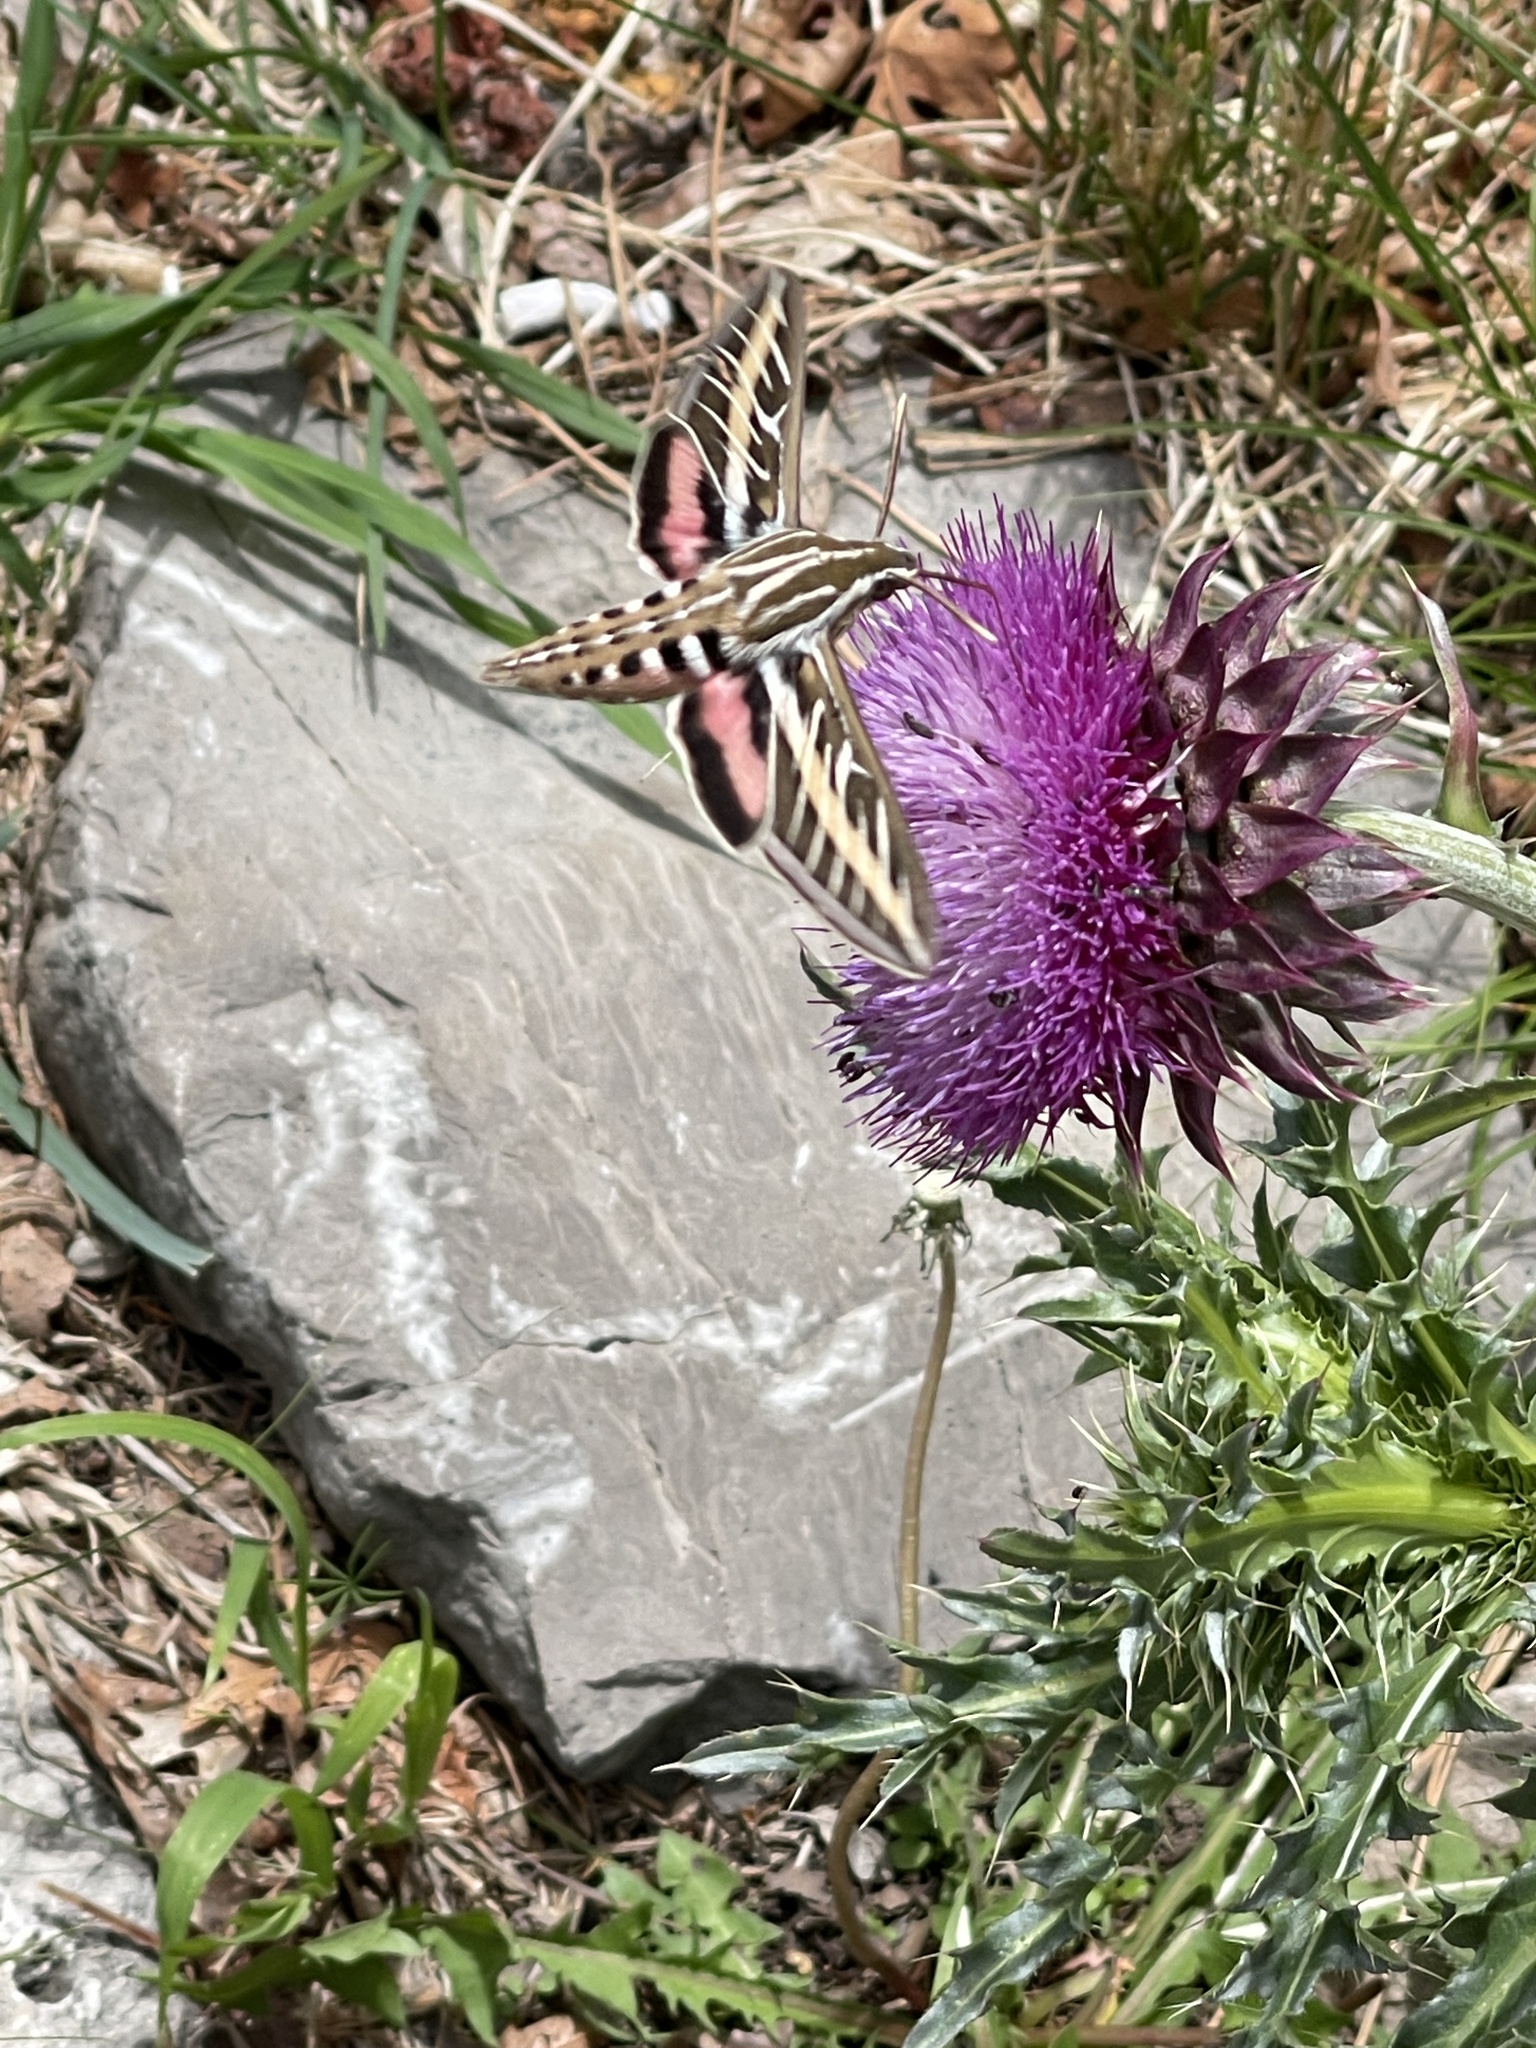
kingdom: Animalia
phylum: Arthropoda
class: Insecta
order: Lepidoptera
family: Sphingidae
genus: Hyles
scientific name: Hyles lineata
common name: White-lined sphinx
